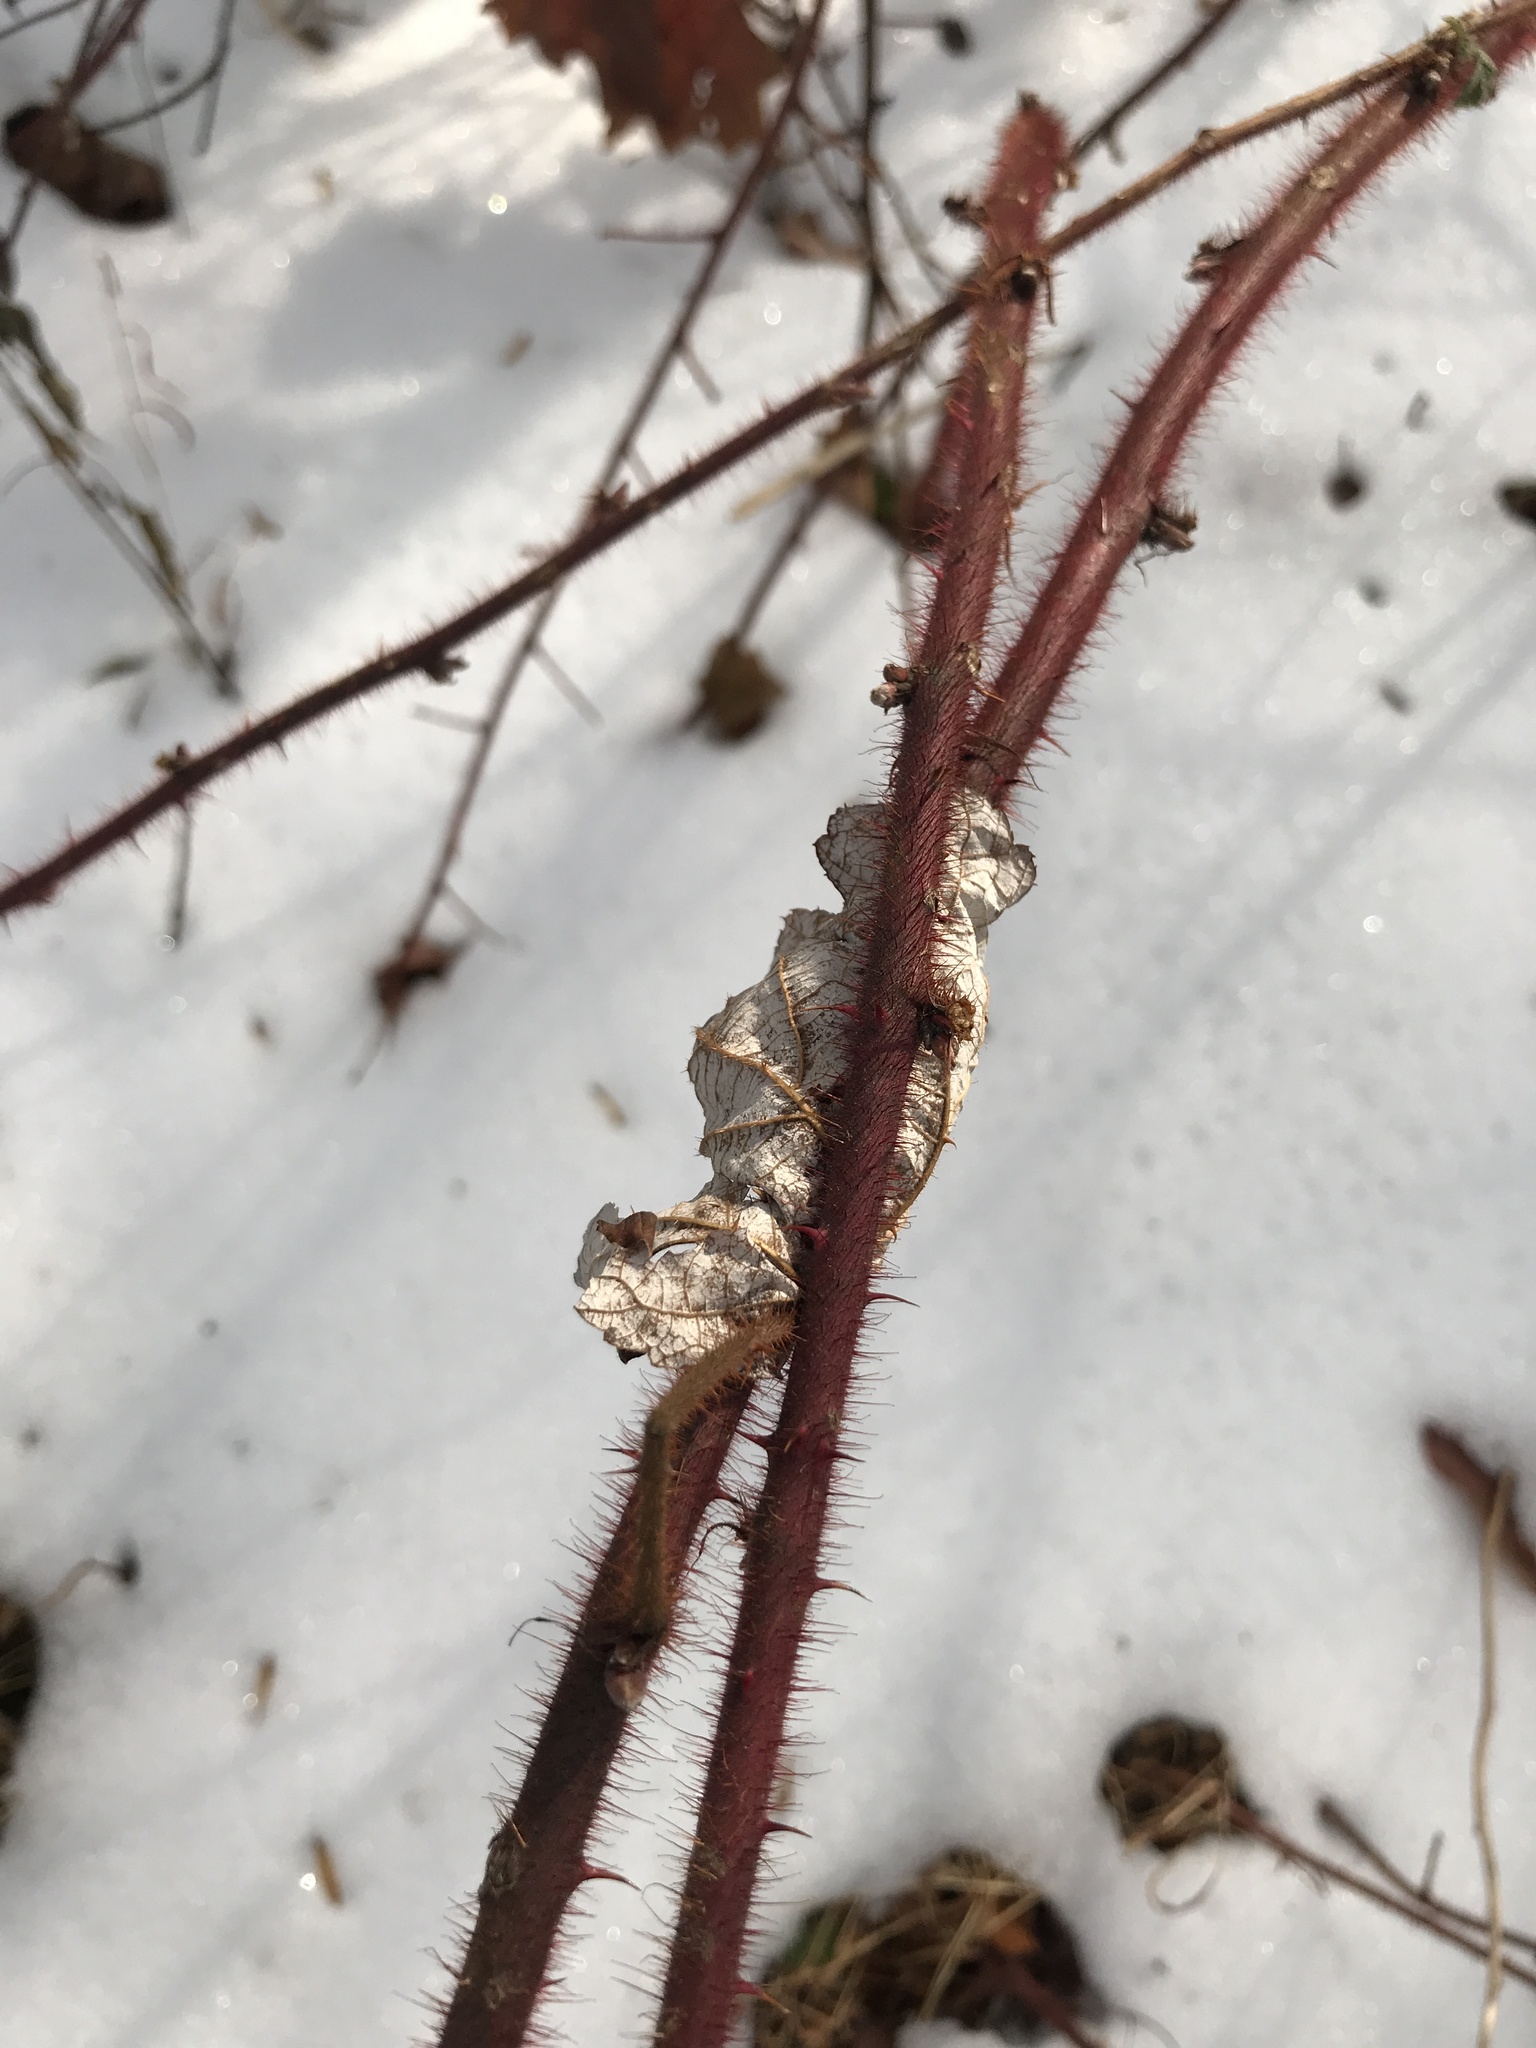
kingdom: Plantae
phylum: Tracheophyta
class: Magnoliopsida
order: Rosales
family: Rosaceae
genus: Rubus
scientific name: Rubus phoenicolasius
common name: Japanese wineberry
